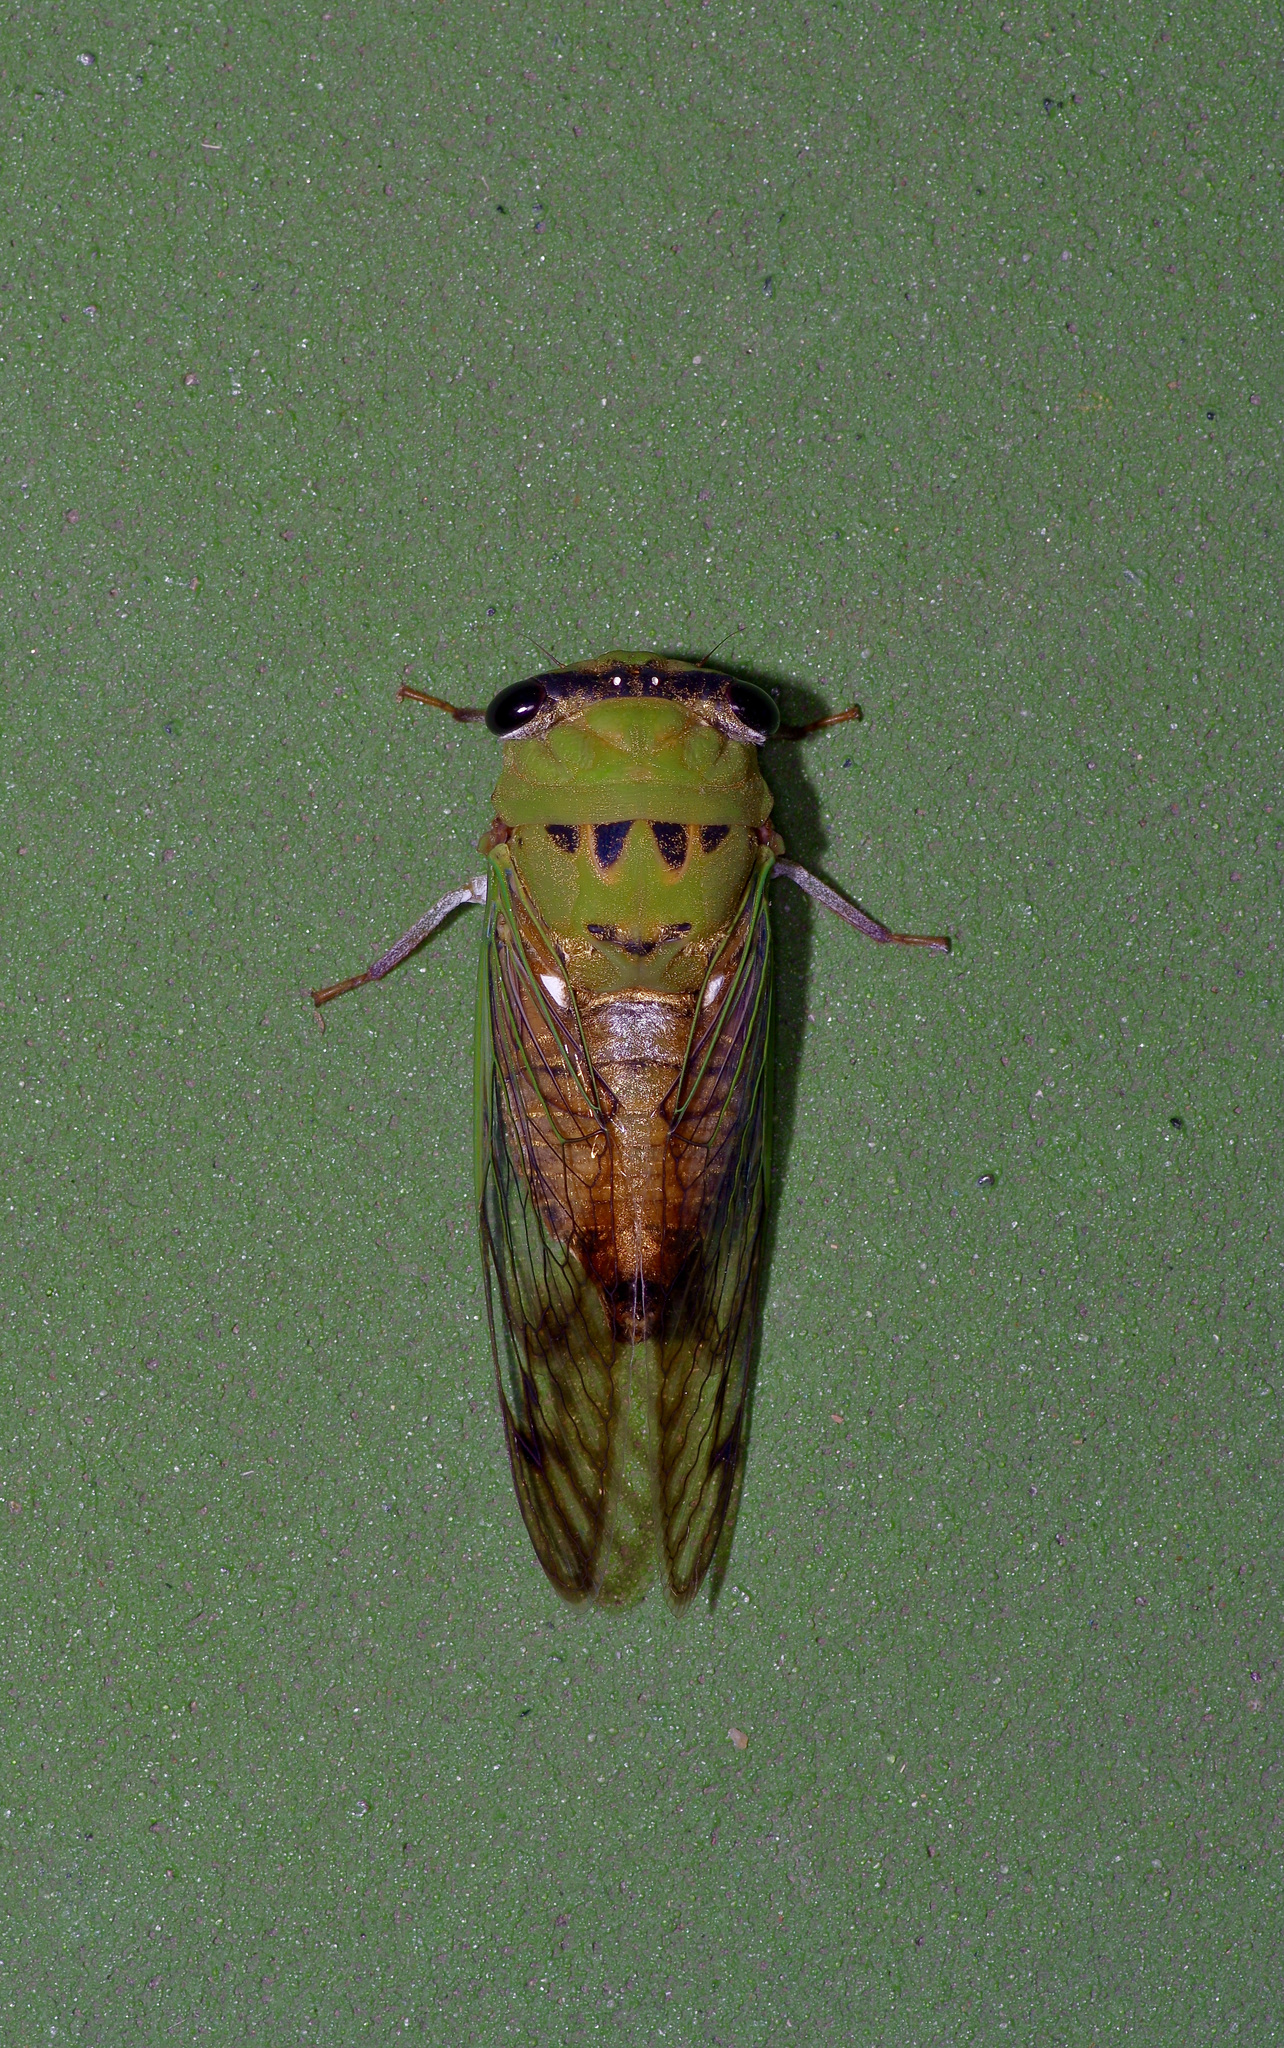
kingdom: Animalia
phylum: Arthropoda
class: Insecta
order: Hemiptera
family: Cicadidae
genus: Neotibicen
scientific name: Neotibicen superbus
